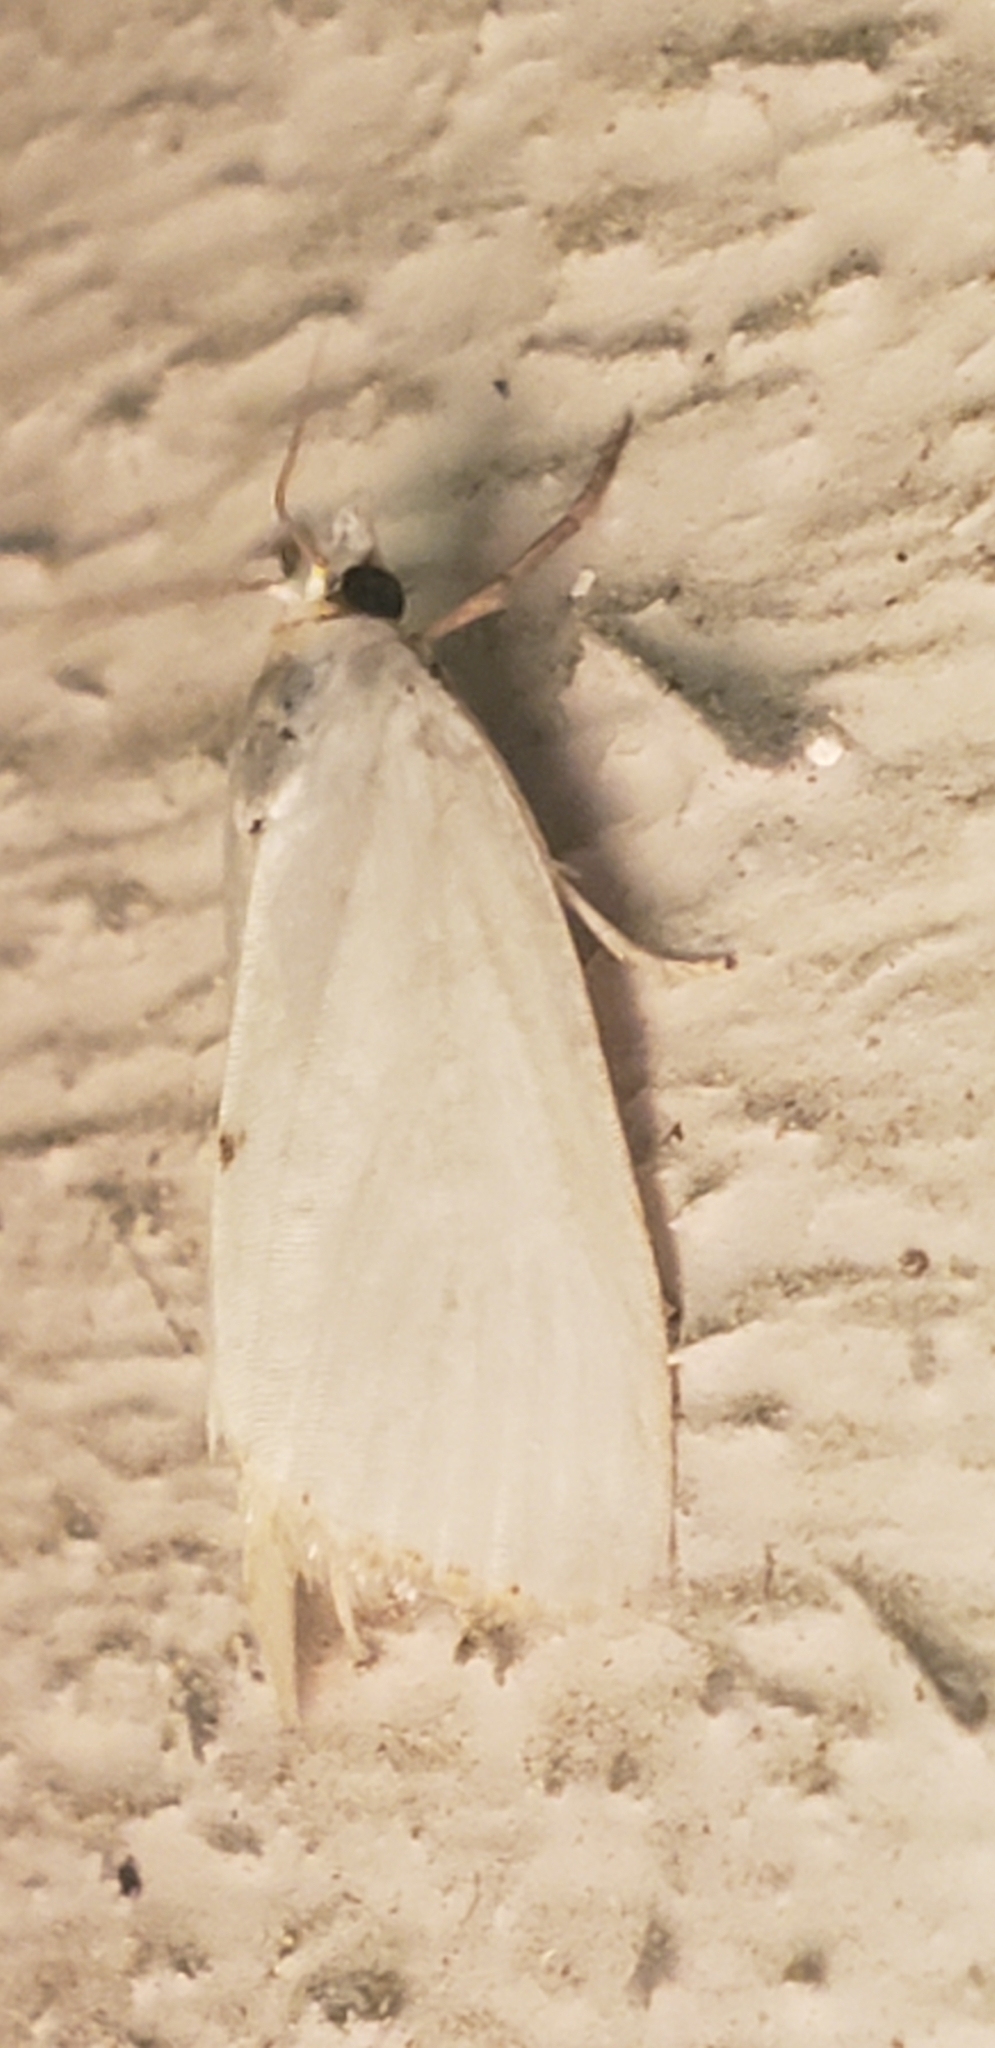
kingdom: Animalia
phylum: Arthropoda
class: Insecta
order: Lepidoptera
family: Crambidae
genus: Argyria
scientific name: Argyria nivalis
